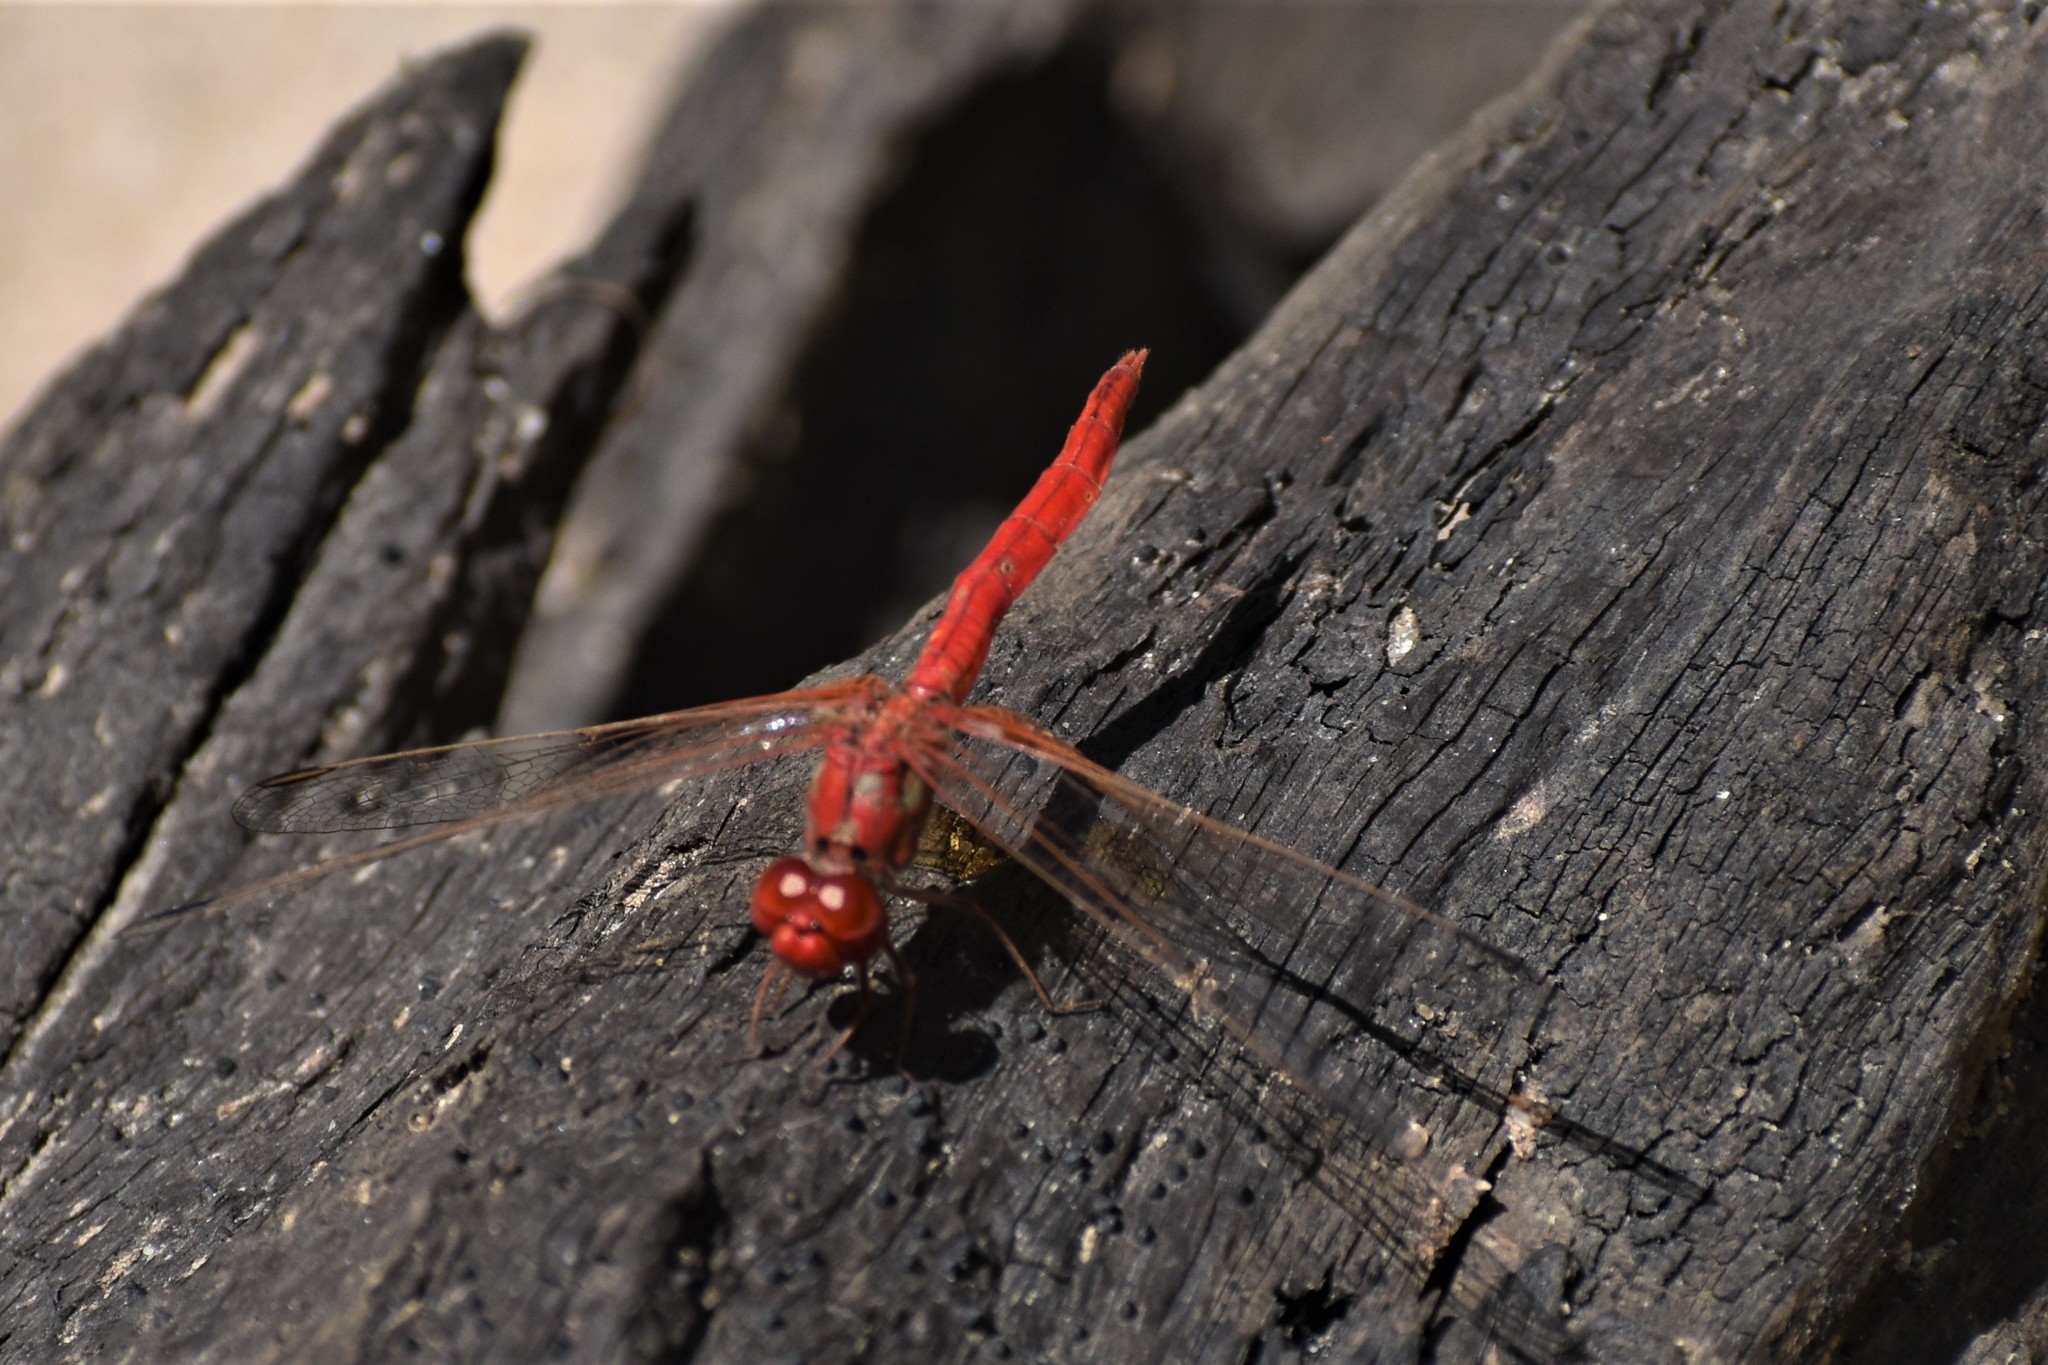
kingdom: Animalia
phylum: Arthropoda
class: Insecta
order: Odonata
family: Libellulidae
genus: Diplacodes
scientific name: Diplacodes haematodes
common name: Scarlet percher
